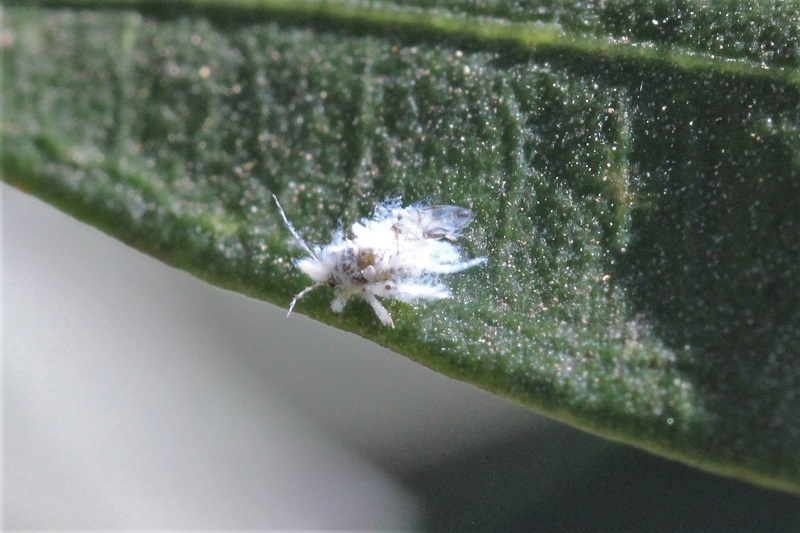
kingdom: Animalia
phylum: Arthropoda
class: Insecta
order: Hemiptera
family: Aphididae
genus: Shivaphis
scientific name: Shivaphis celti
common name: Asian wooly hackberry aphid
